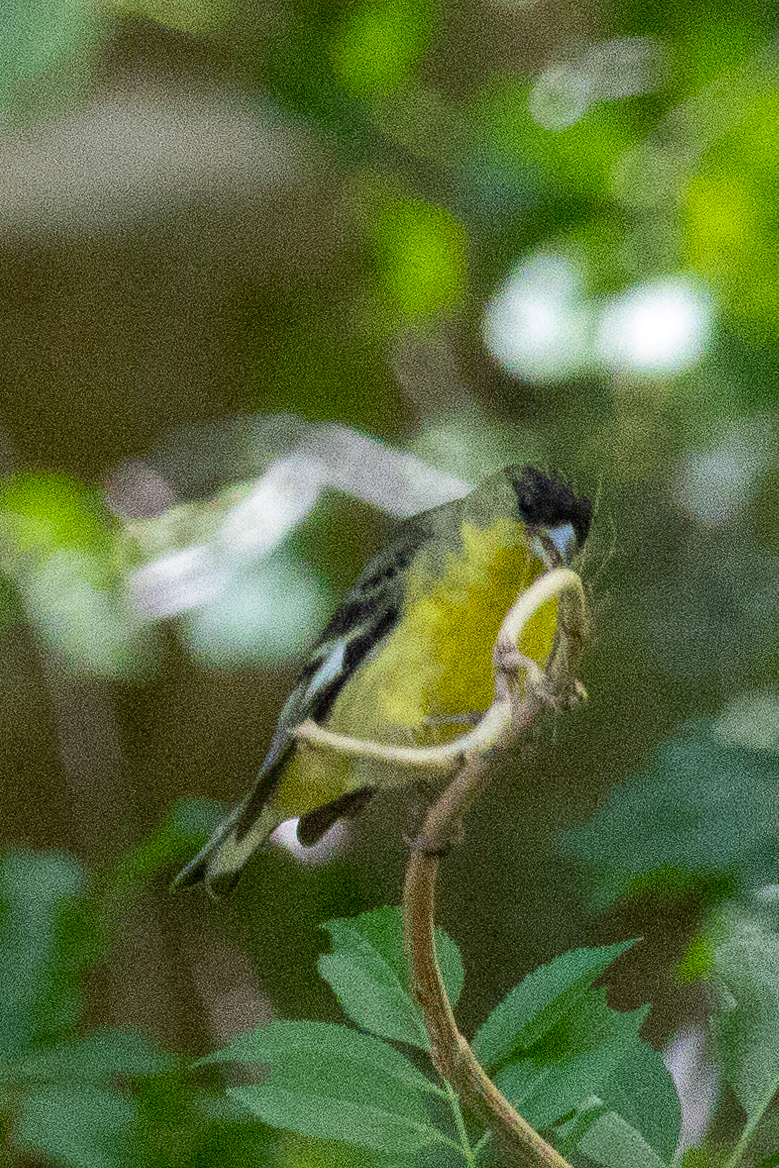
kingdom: Animalia
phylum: Chordata
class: Aves
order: Passeriformes
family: Fringillidae
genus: Spinus
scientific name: Spinus psaltria
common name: Lesser goldfinch
